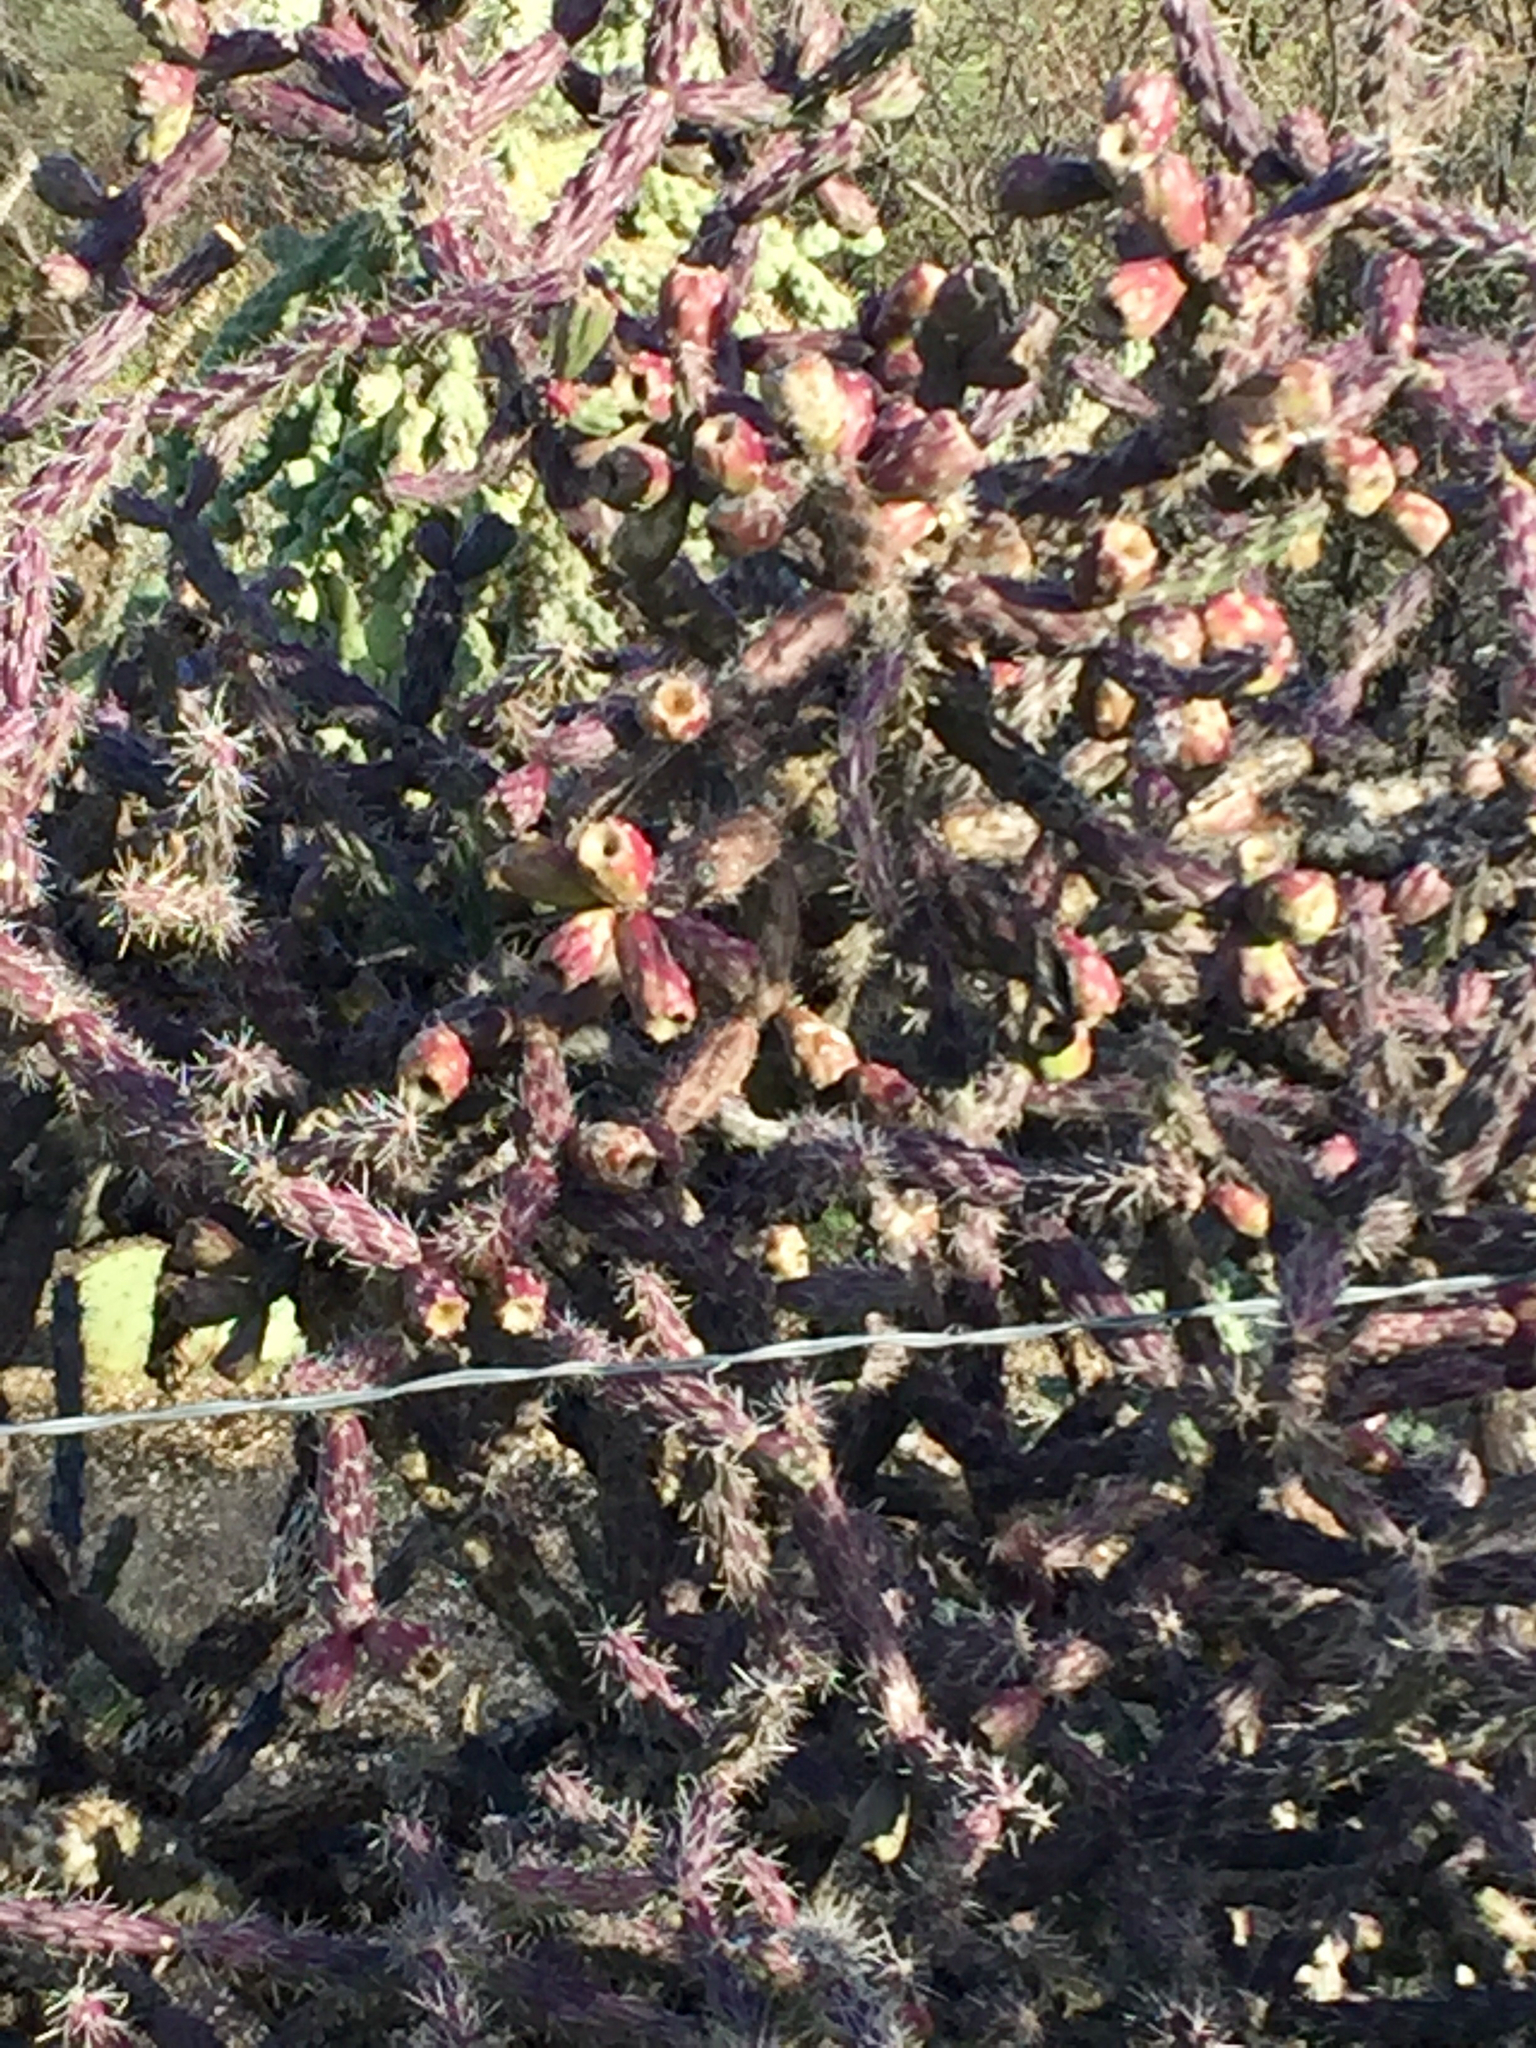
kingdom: Plantae
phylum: Tracheophyta
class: Magnoliopsida
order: Caryophyllales
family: Cactaceae
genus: Cylindropuntia
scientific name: Cylindropuntia thurberi
